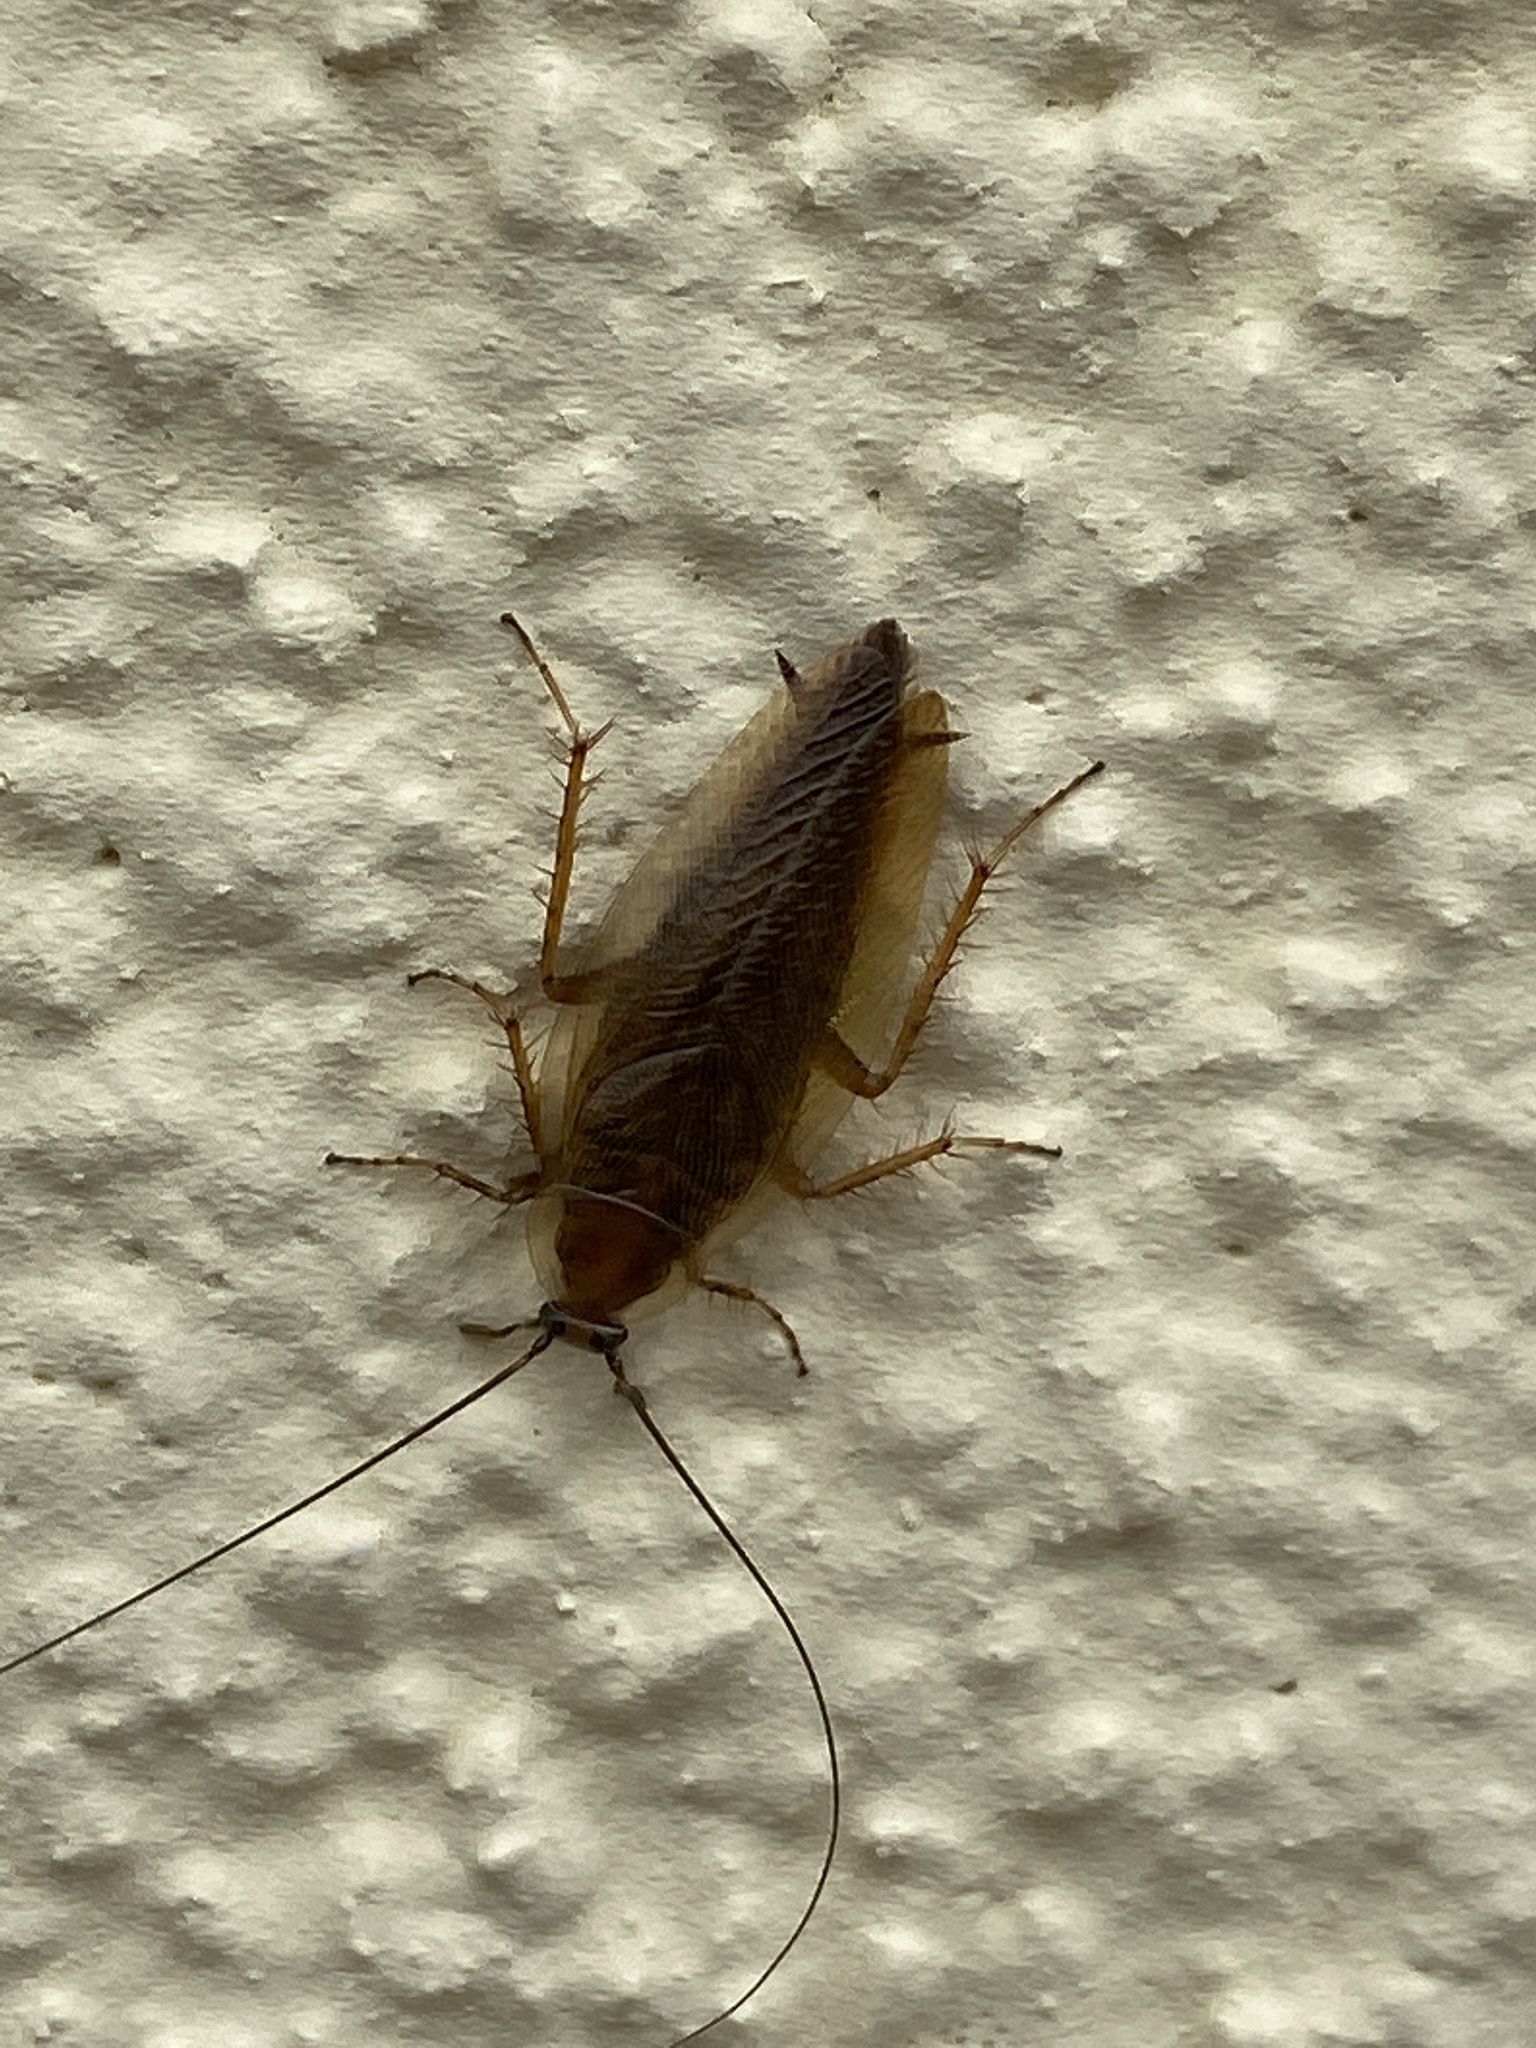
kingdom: Animalia
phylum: Arthropoda
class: Insecta
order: Blattodea
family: Ectobiidae
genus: Ectobius
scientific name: Ectobius vittiventris
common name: Garden cockroach
